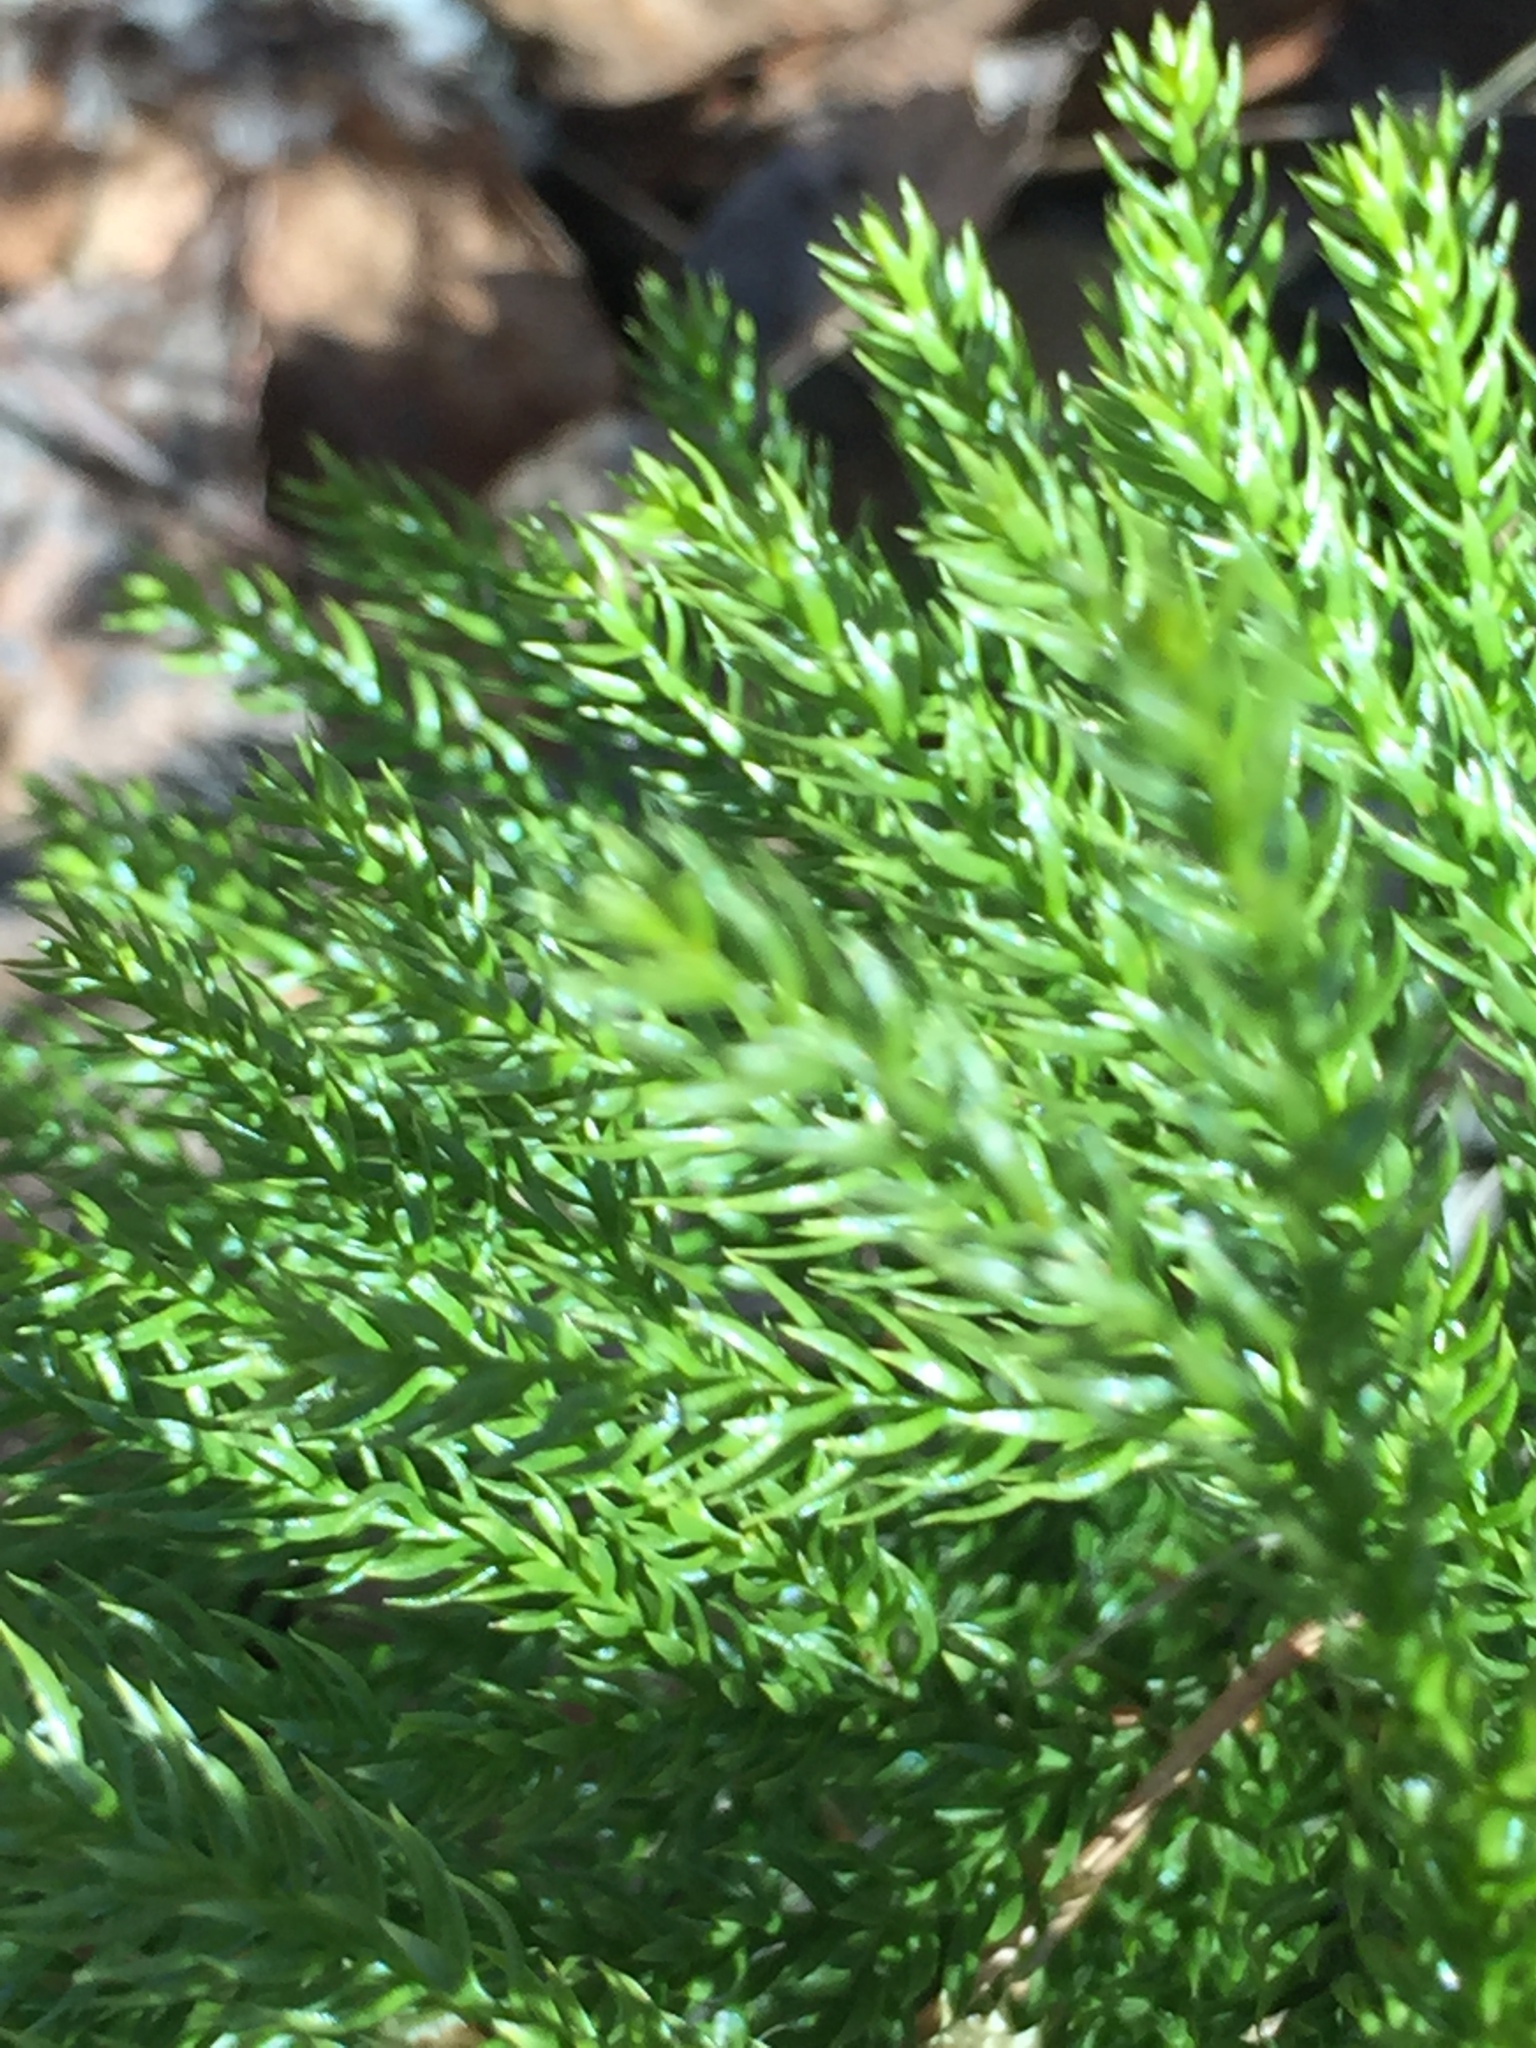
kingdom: Plantae
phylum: Tracheophyta
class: Lycopodiopsida
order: Lycopodiales
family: Lycopodiaceae
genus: Dendrolycopodium
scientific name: Dendrolycopodium dendroideum
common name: Northern tree-clubmoss
